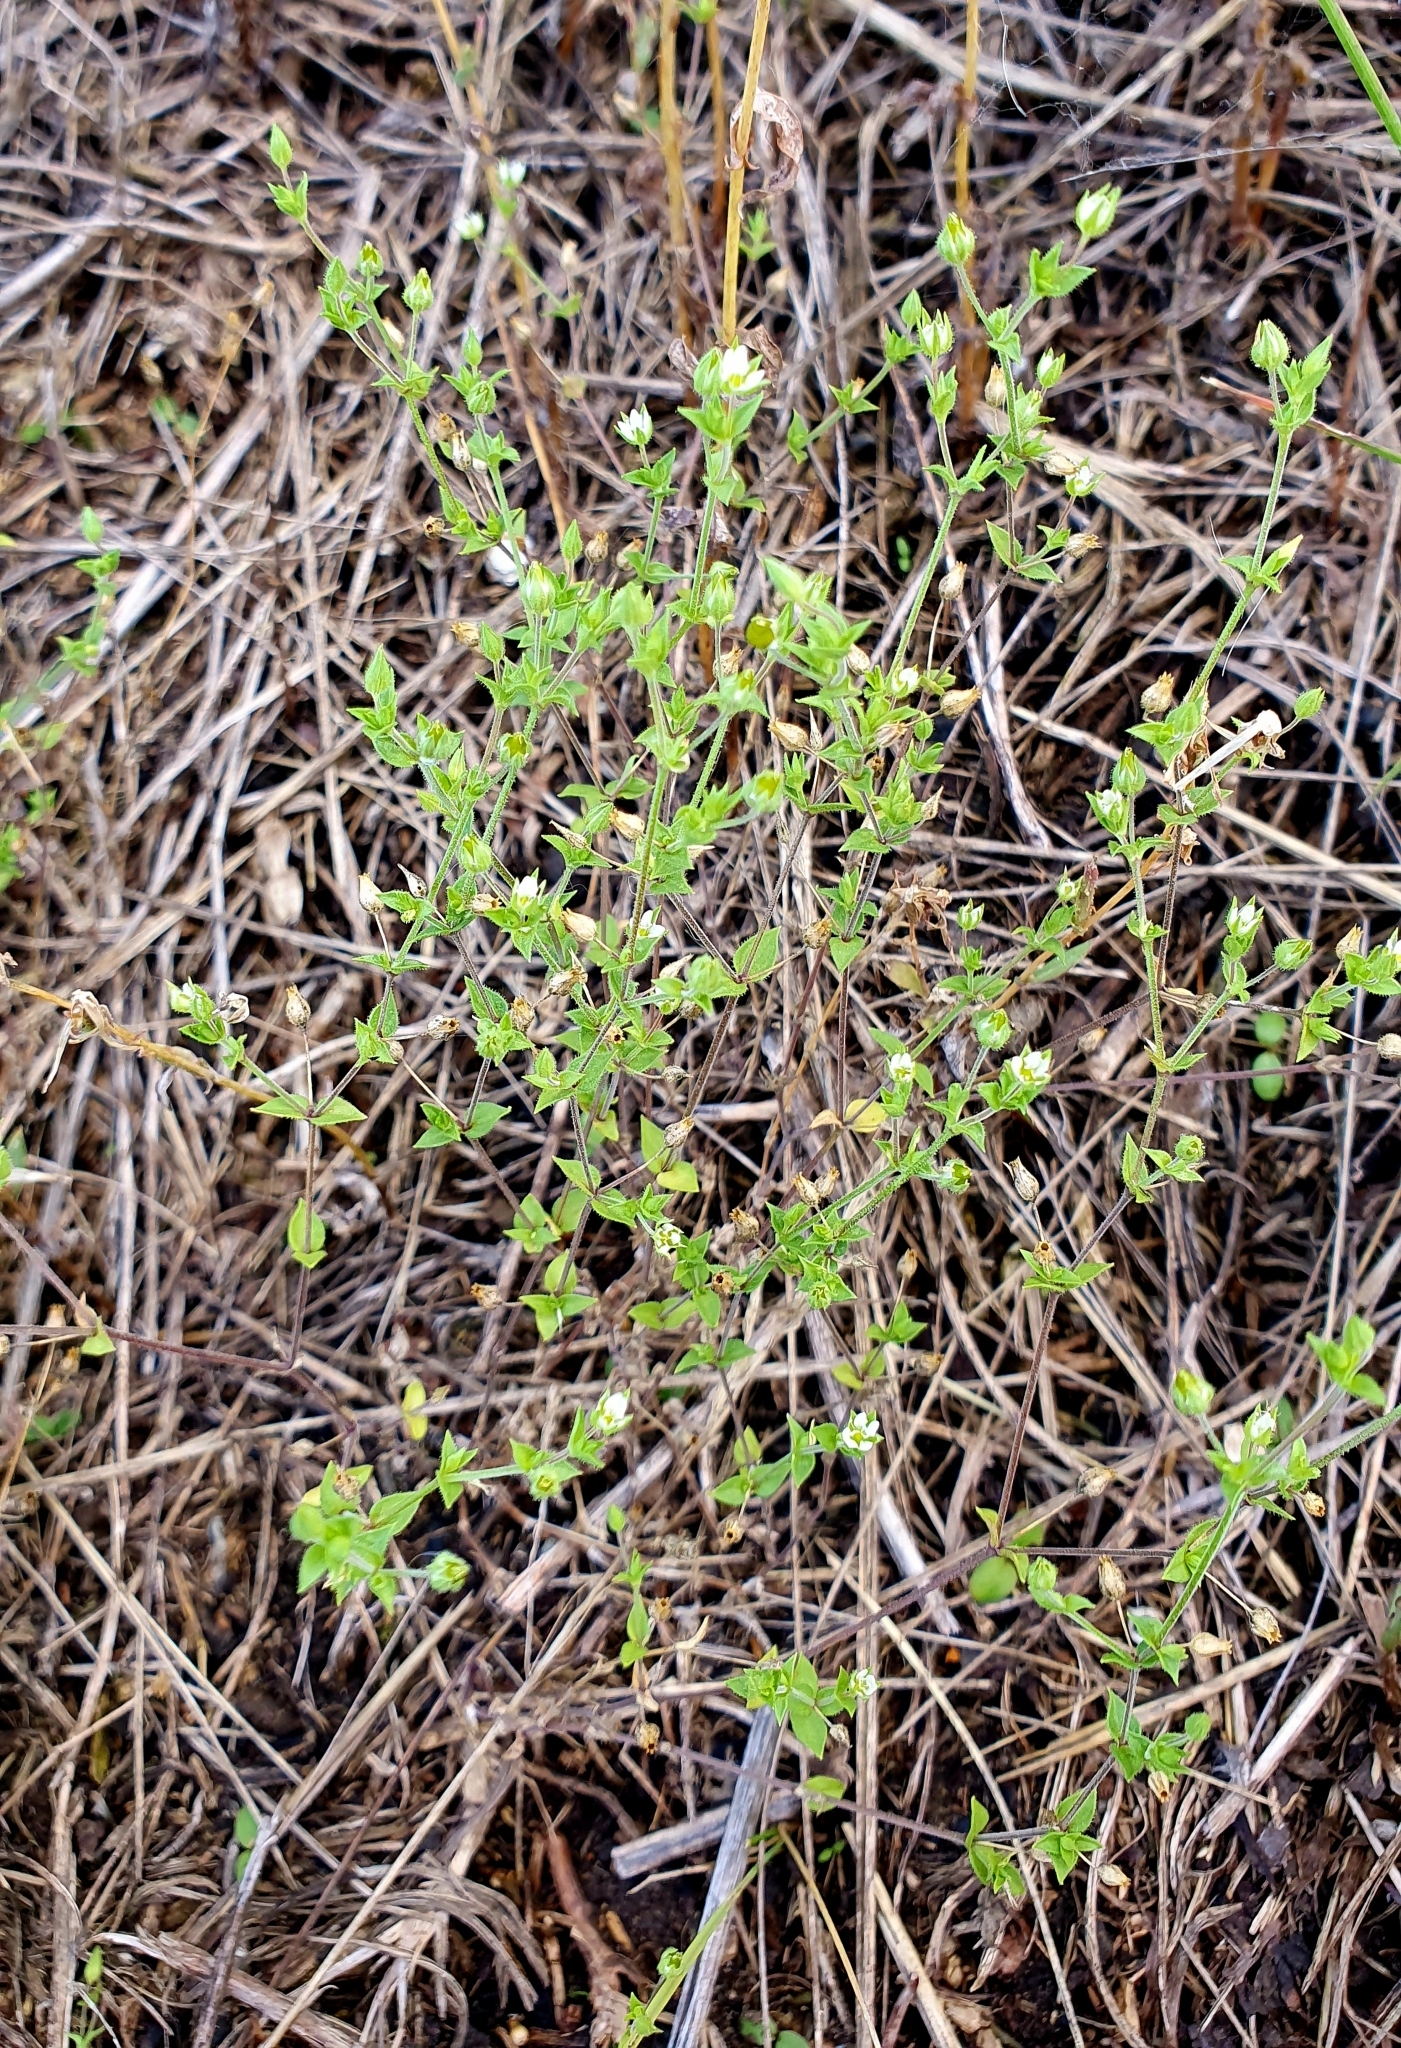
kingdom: Plantae
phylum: Tracheophyta
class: Magnoliopsida
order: Caryophyllales
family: Caryophyllaceae
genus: Arenaria
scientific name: Arenaria serpyllifolia
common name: Thyme-leaved sandwort
